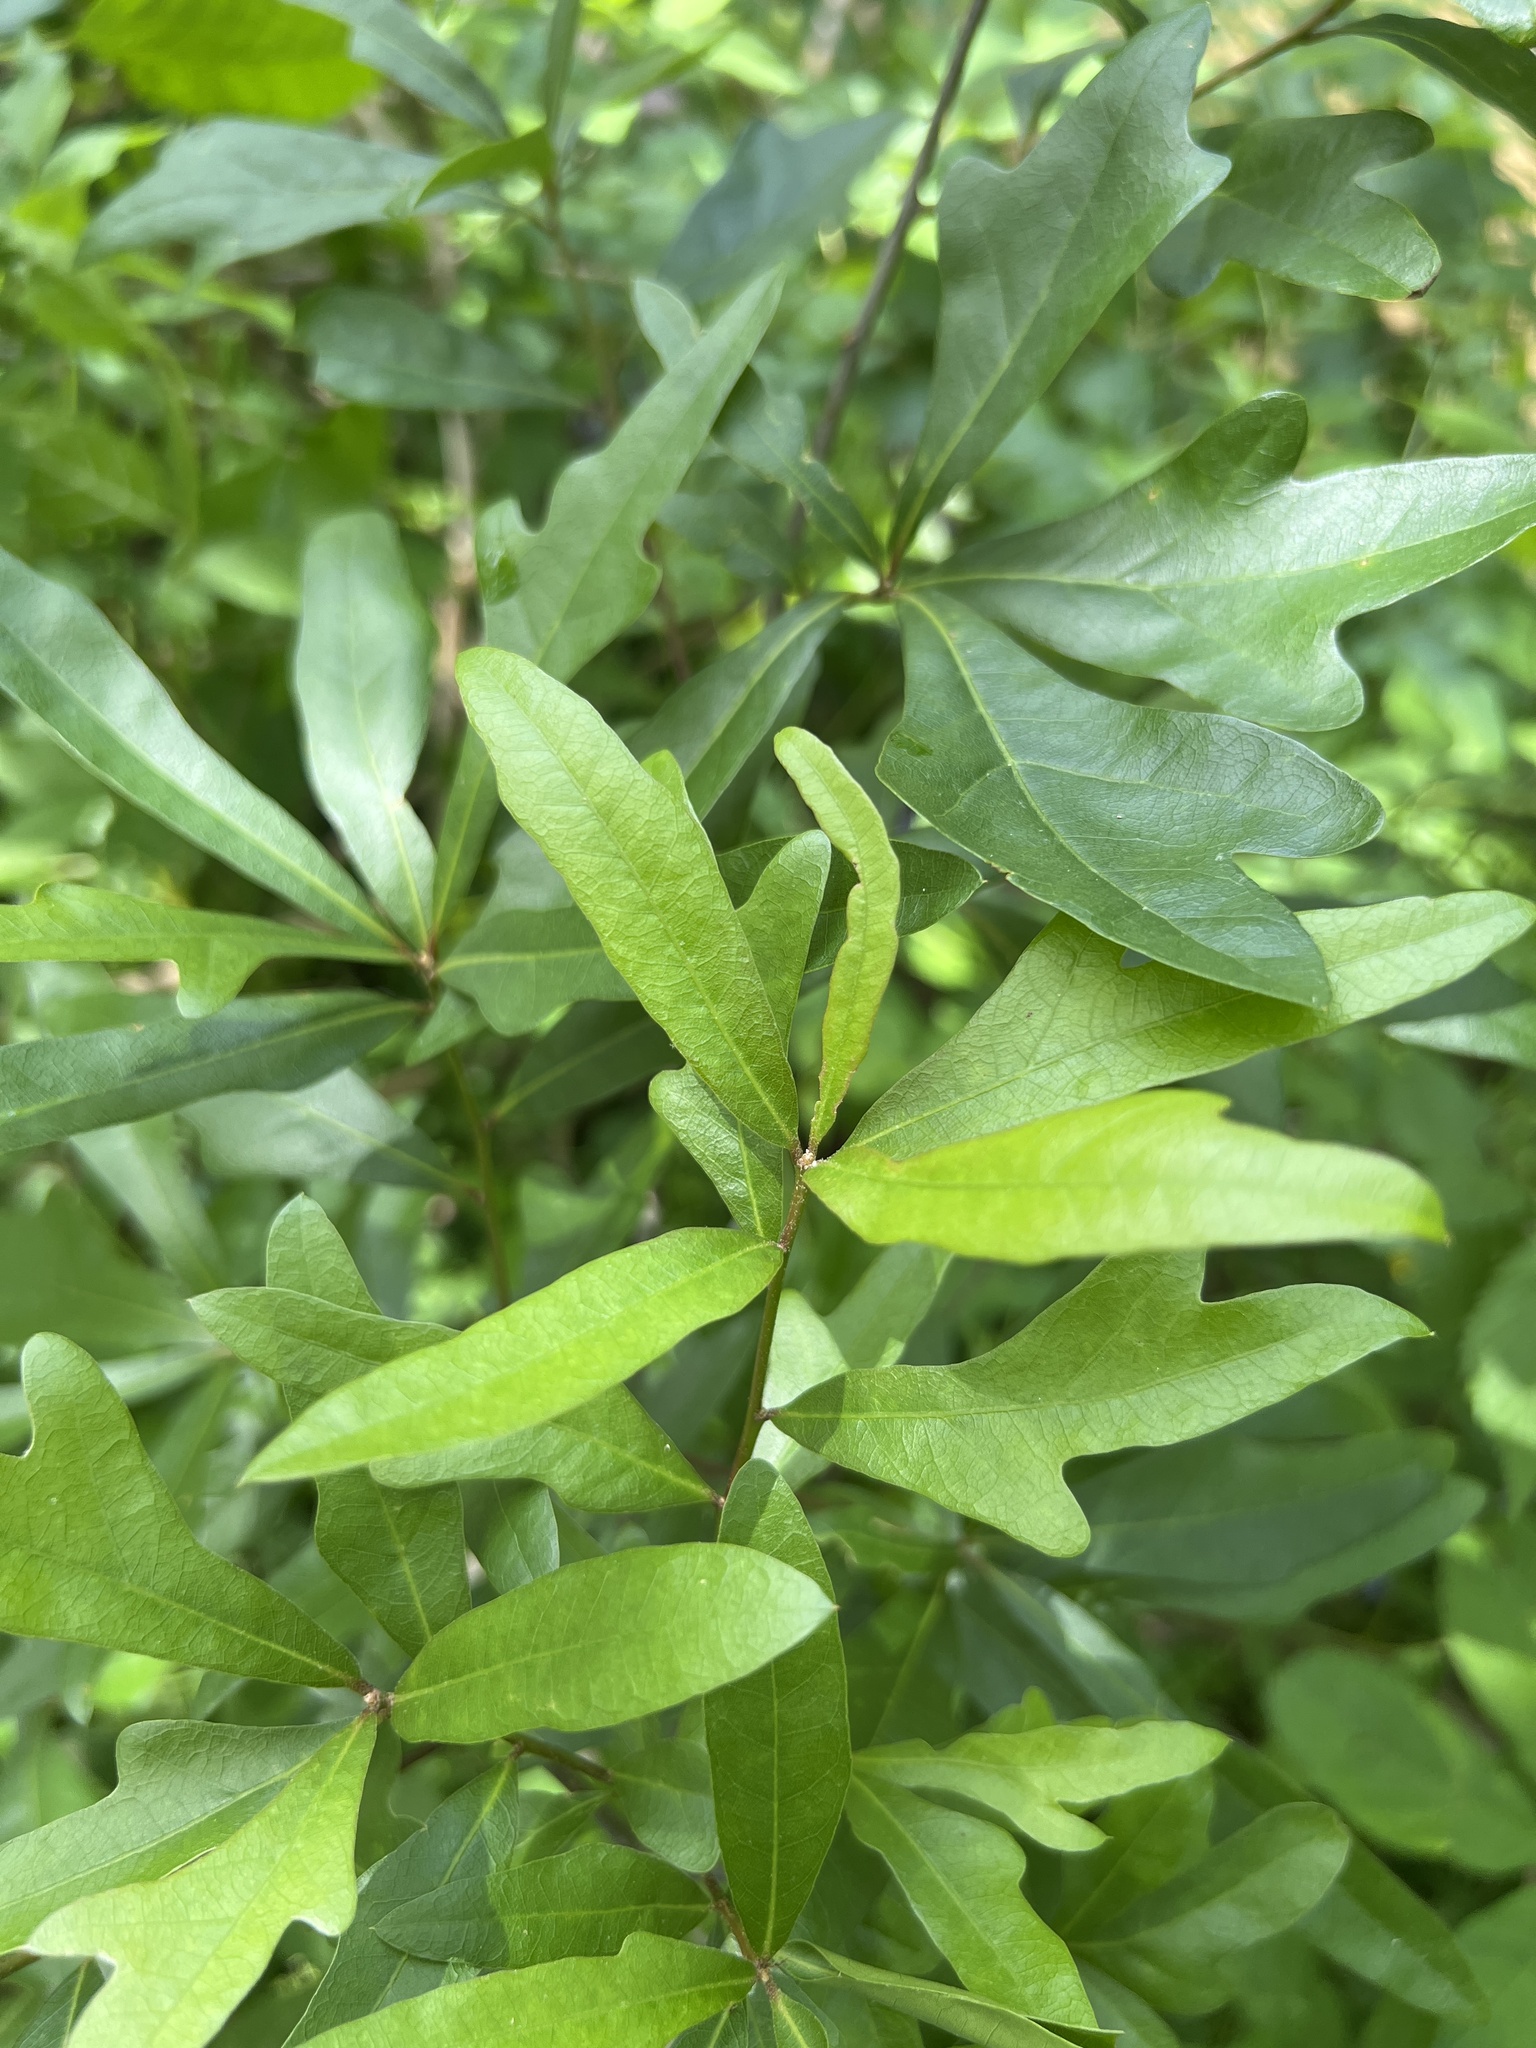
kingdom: Plantae
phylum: Tracheophyta
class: Magnoliopsida
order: Fagales
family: Fagaceae
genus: Quercus
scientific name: Quercus nigra
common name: Water oak
